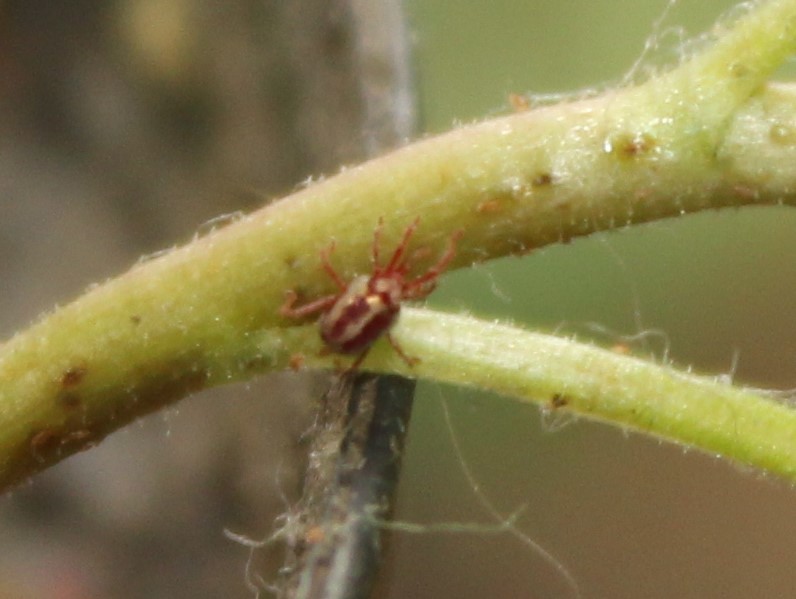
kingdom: Animalia
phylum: Arthropoda
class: Arachnida
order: Trombidiformes
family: Erythraeidae
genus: Balaustium
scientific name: Balaustium leanderi
